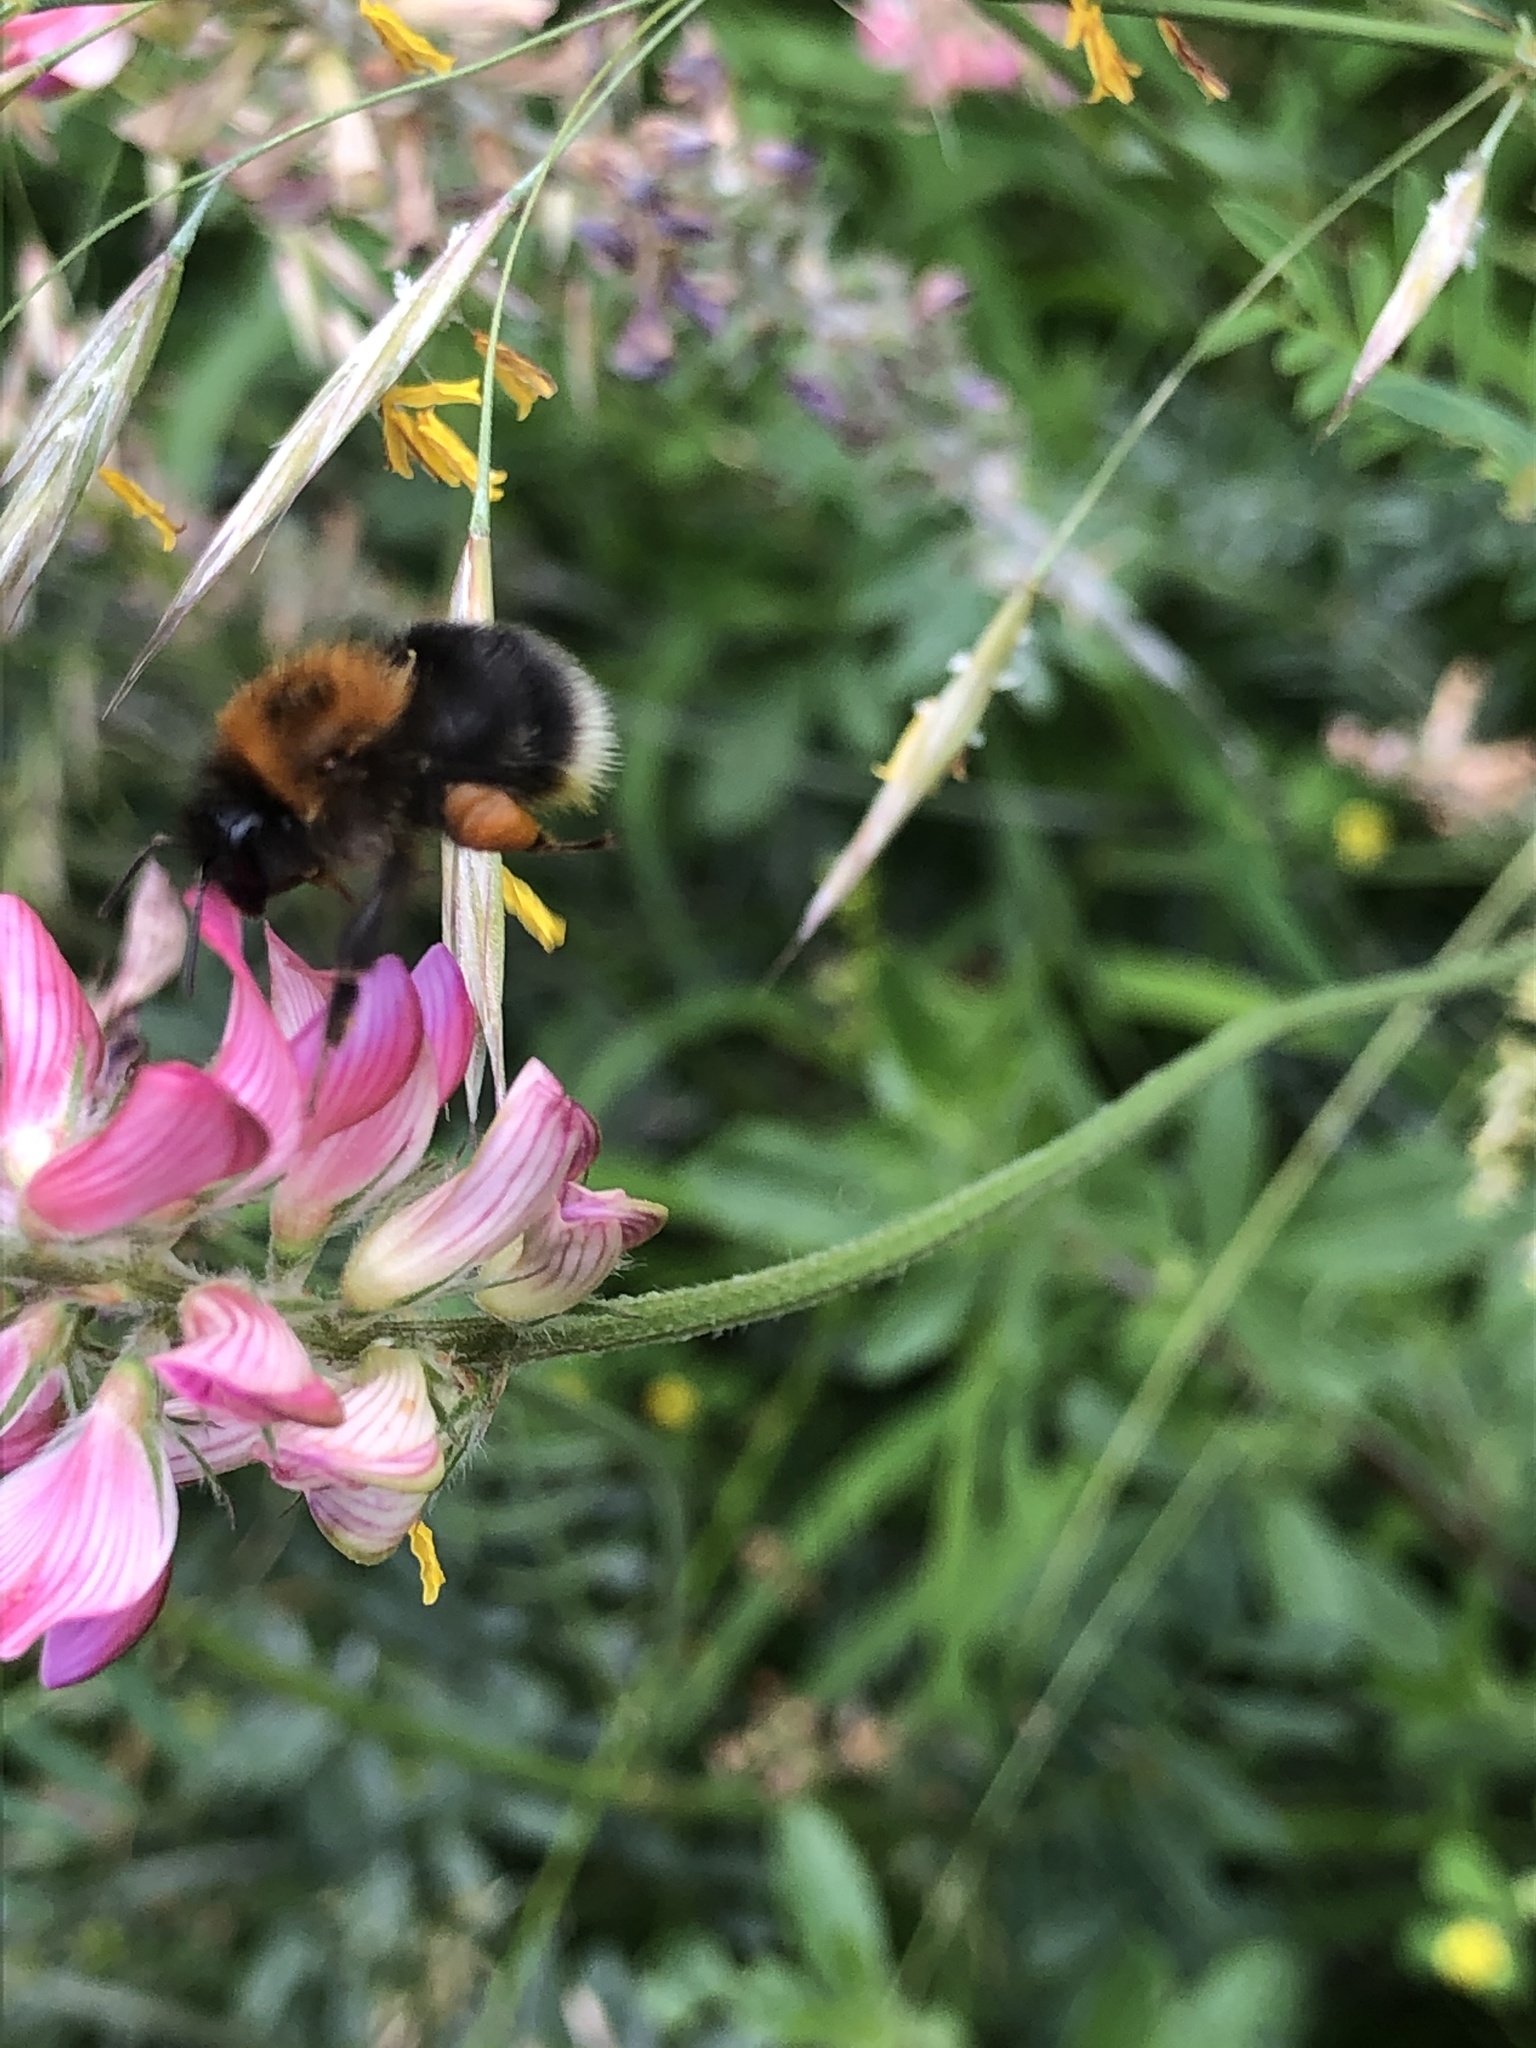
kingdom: Animalia
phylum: Arthropoda
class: Insecta
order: Hymenoptera
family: Apidae
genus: Bombus
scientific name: Bombus hypnorum
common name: New garden bumblebee
